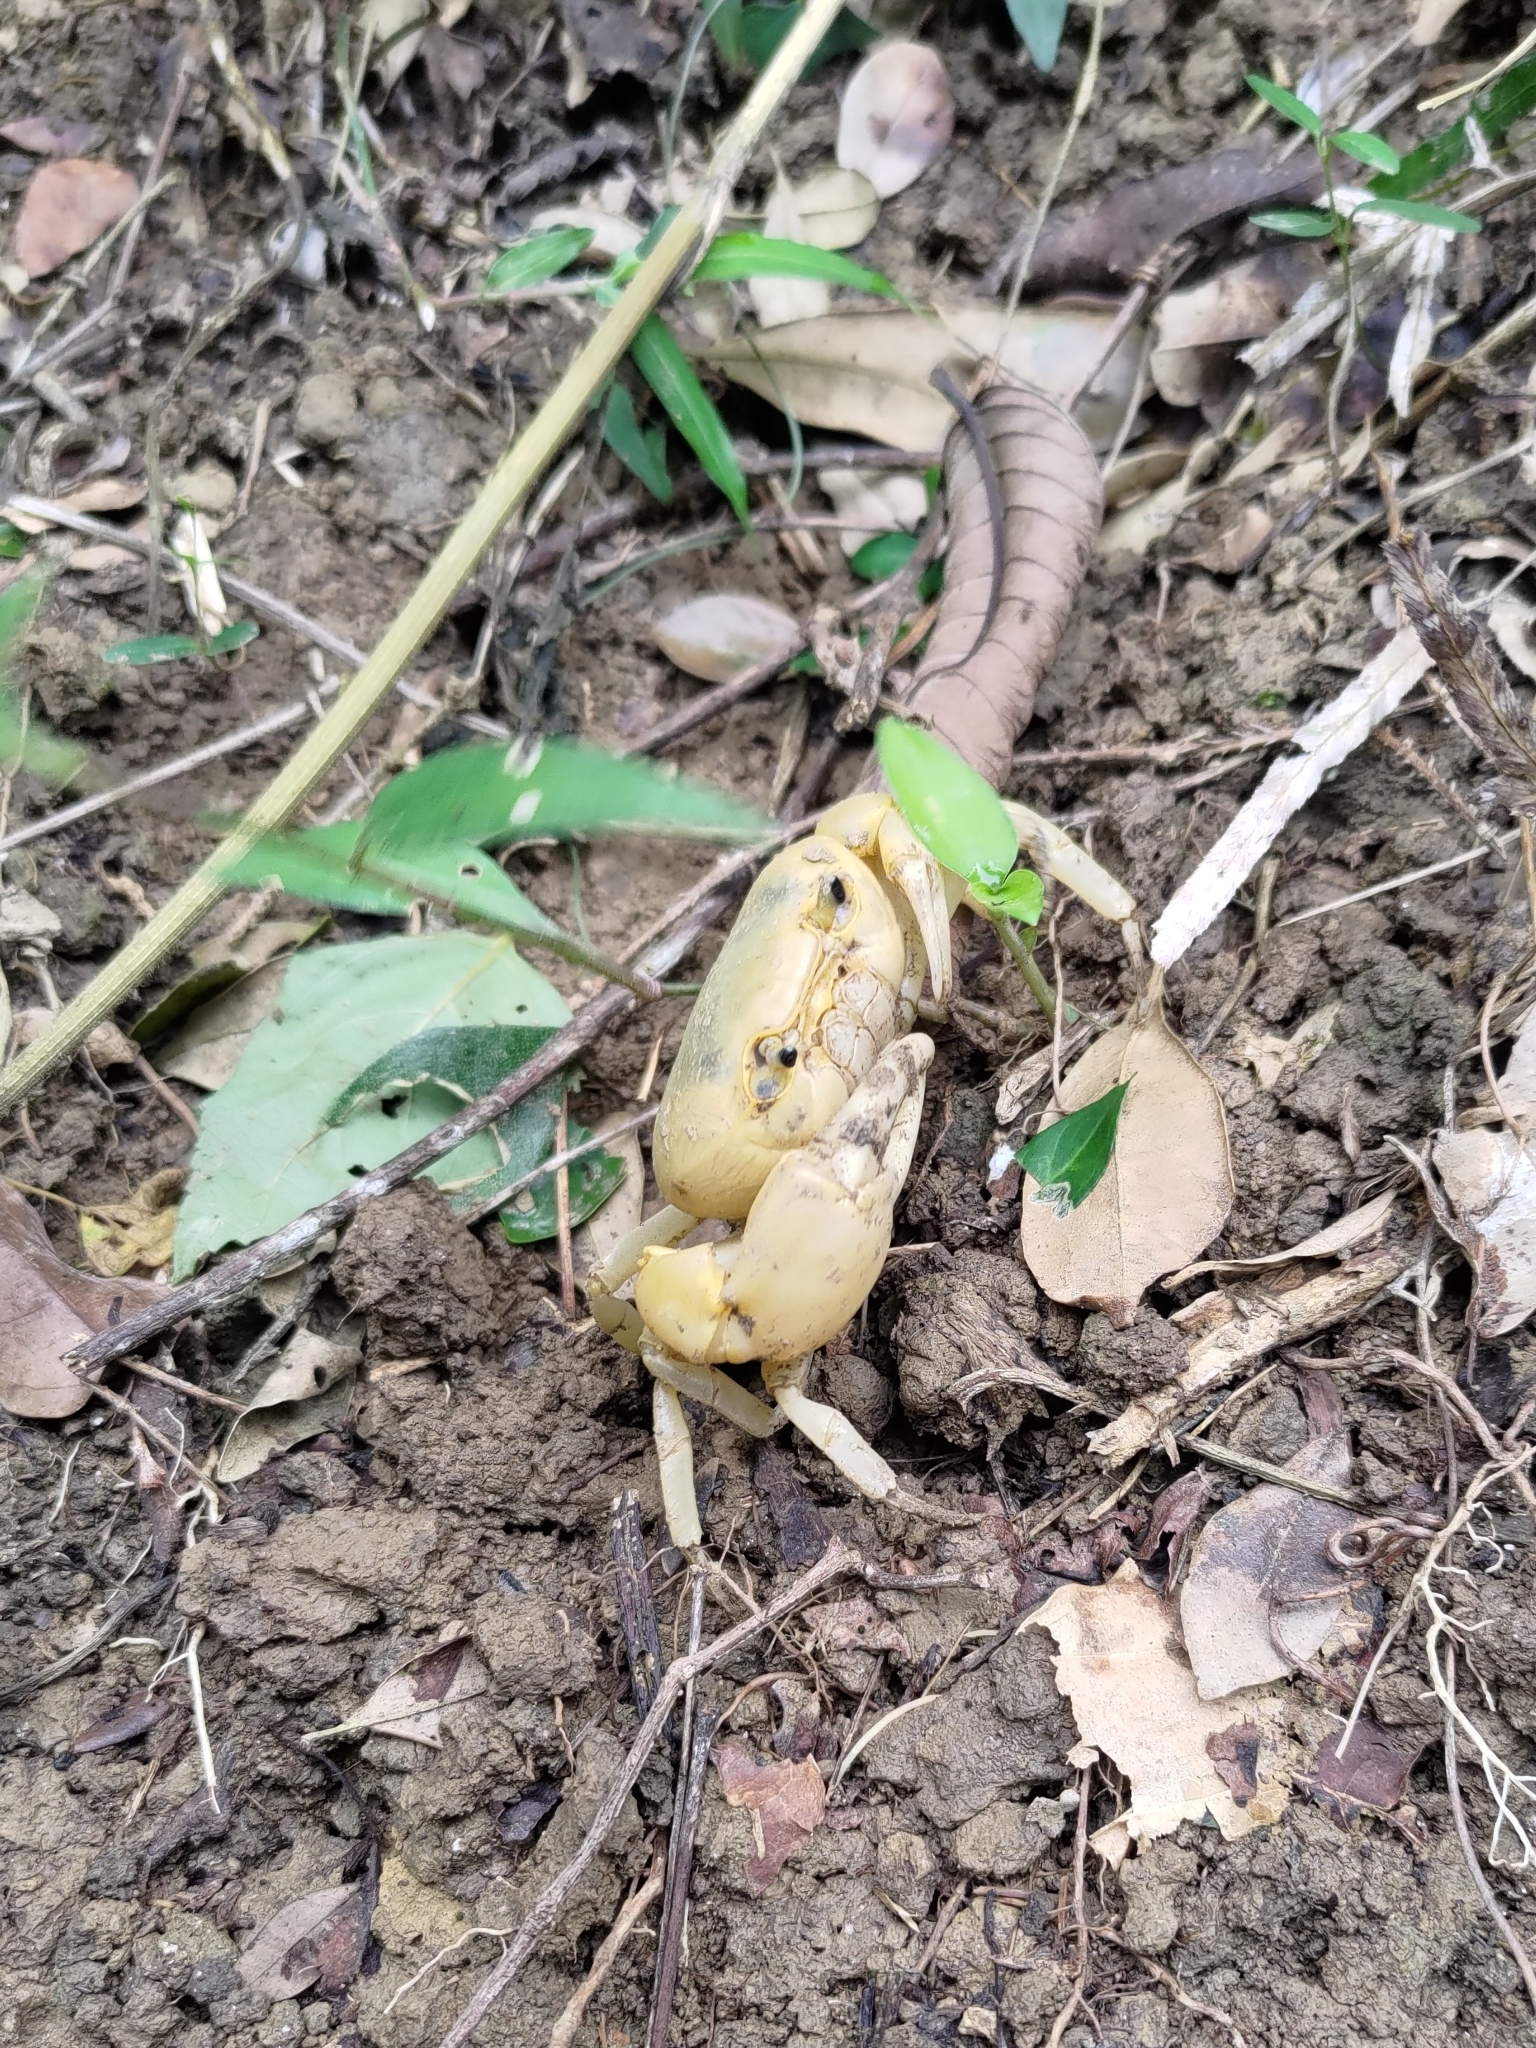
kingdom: Animalia
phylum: Arthropoda
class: Malacostraca
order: Decapoda
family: Potamidae
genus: Geothelphusa
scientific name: Geothelphusa albogilva
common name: Huang ze gray crab
